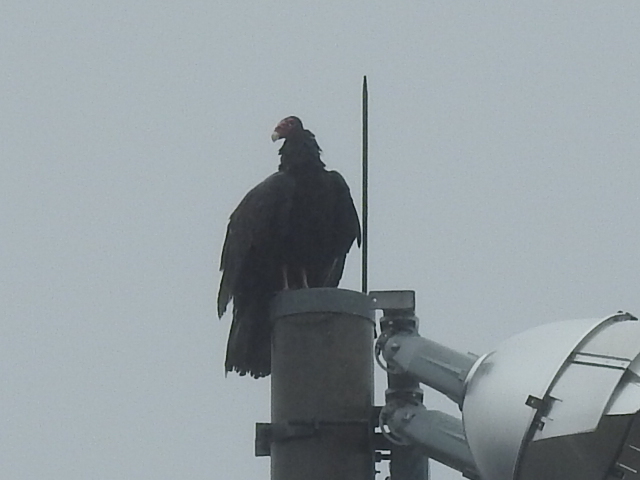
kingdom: Animalia
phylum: Chordata
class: Aves
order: Accipitriformes
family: Cathartidae
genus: Cathartes
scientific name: Cathartes aura
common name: Turkey vulture
